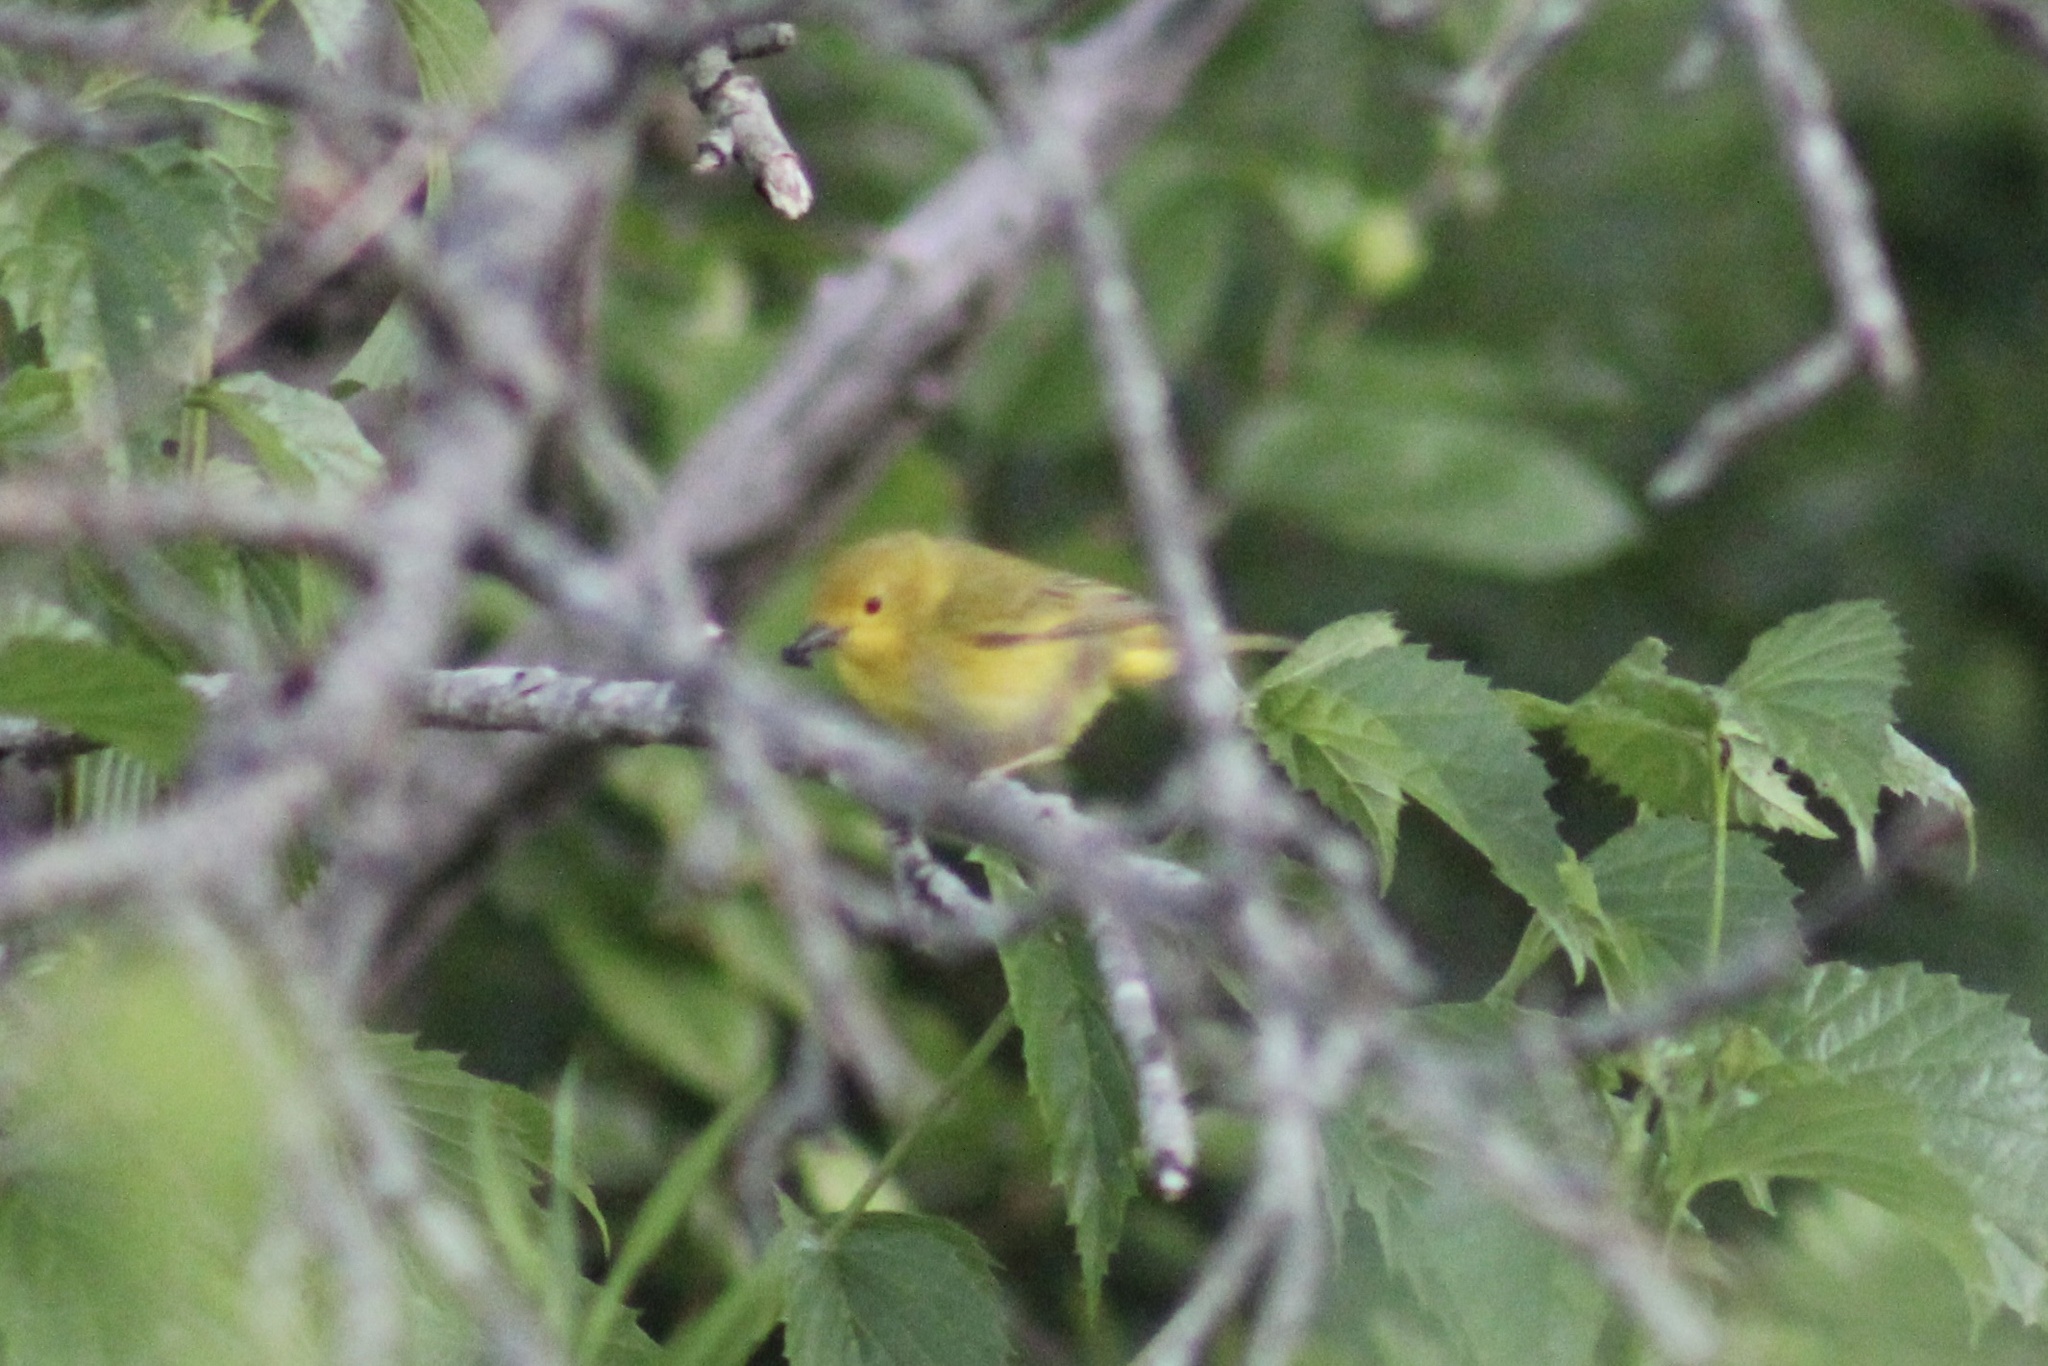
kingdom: Animalia
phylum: Chordata
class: Aves
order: Passeriformes
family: Parulidae
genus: Setophaga
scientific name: Setophaga petechia
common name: Yellow warbler
